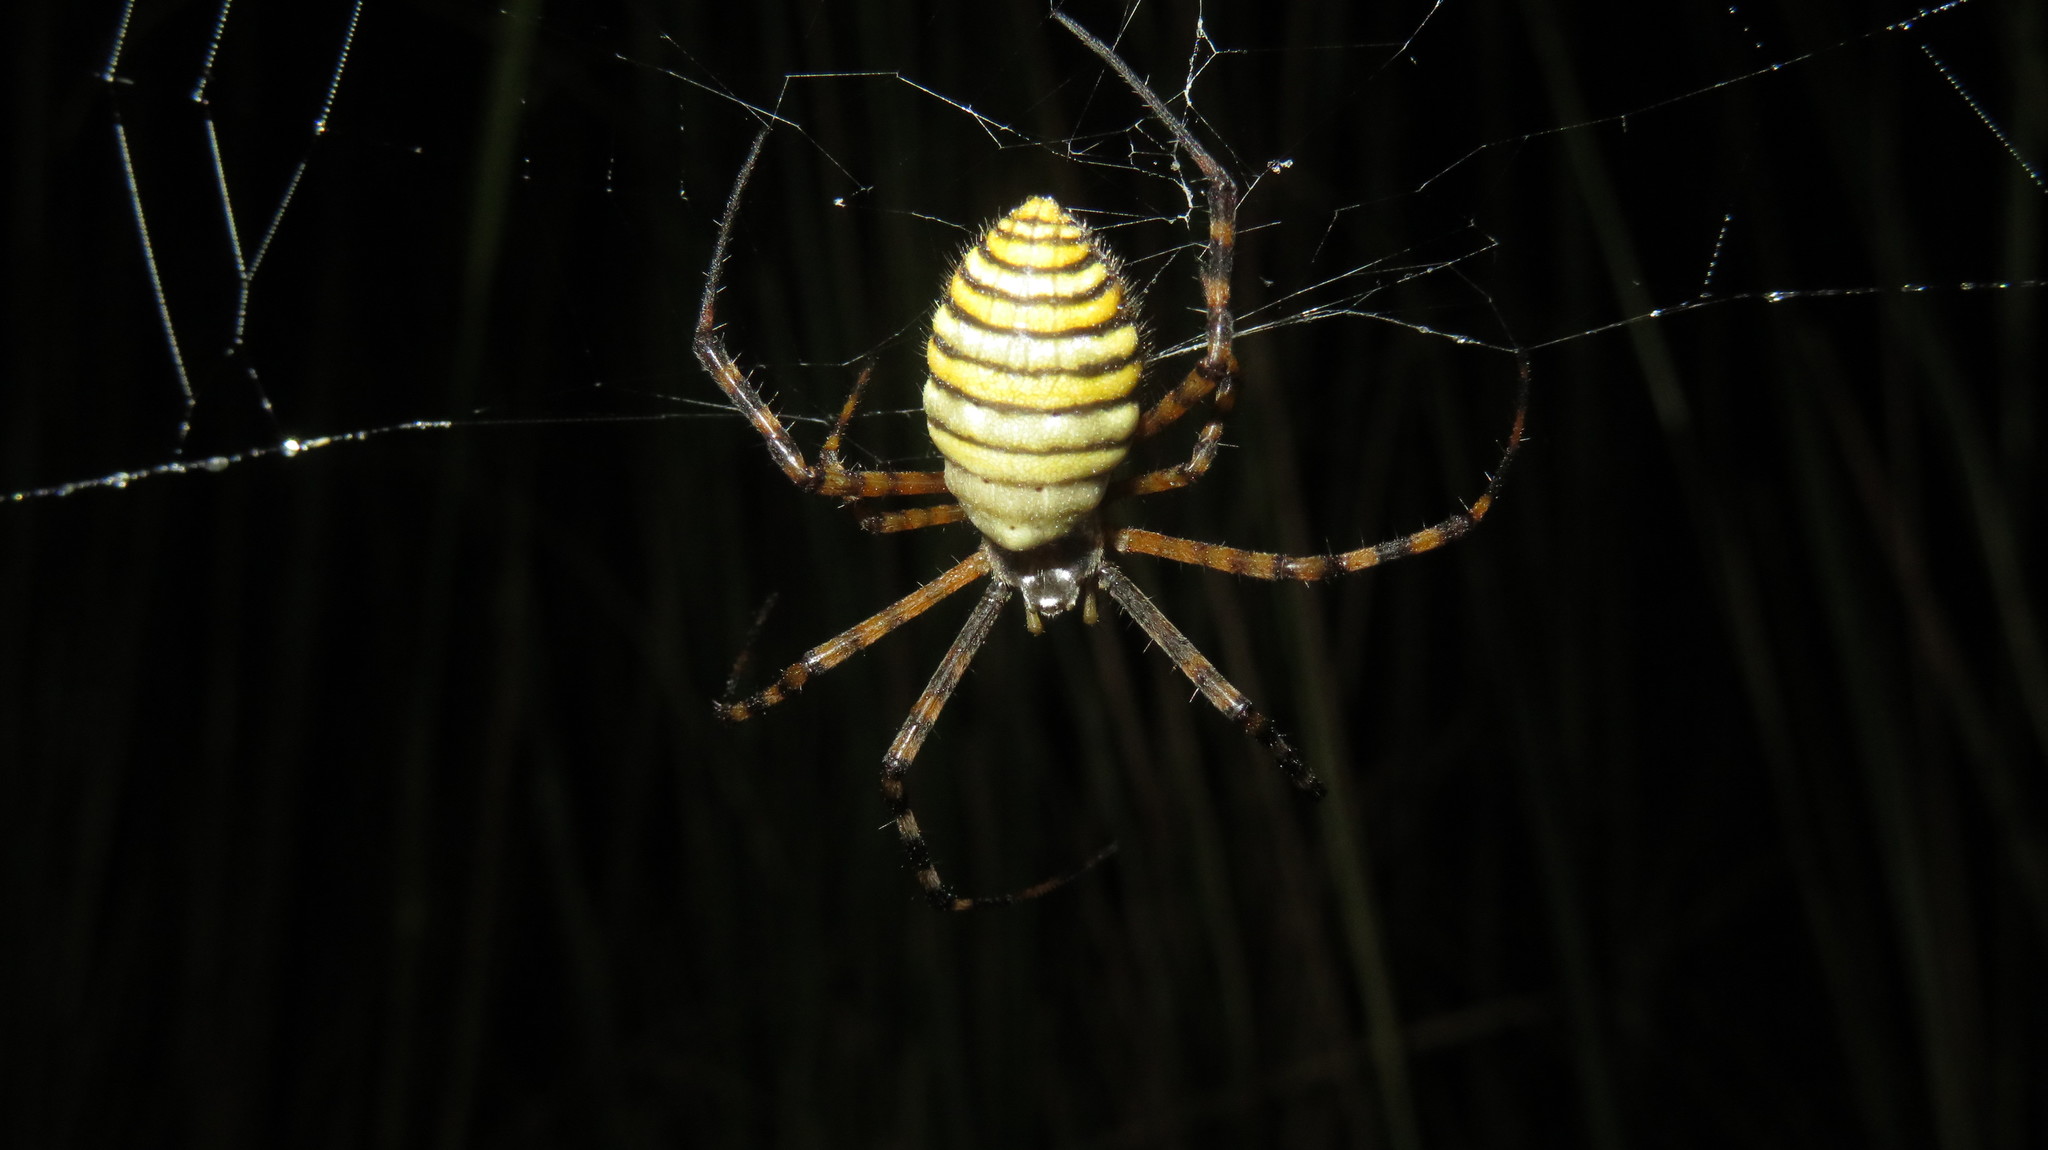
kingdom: Animalia
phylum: Arthropoda
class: Arachnida
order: Araneae
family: Araneidae
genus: Argiope
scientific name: Argiope trifasciata
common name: Banded garden spider
